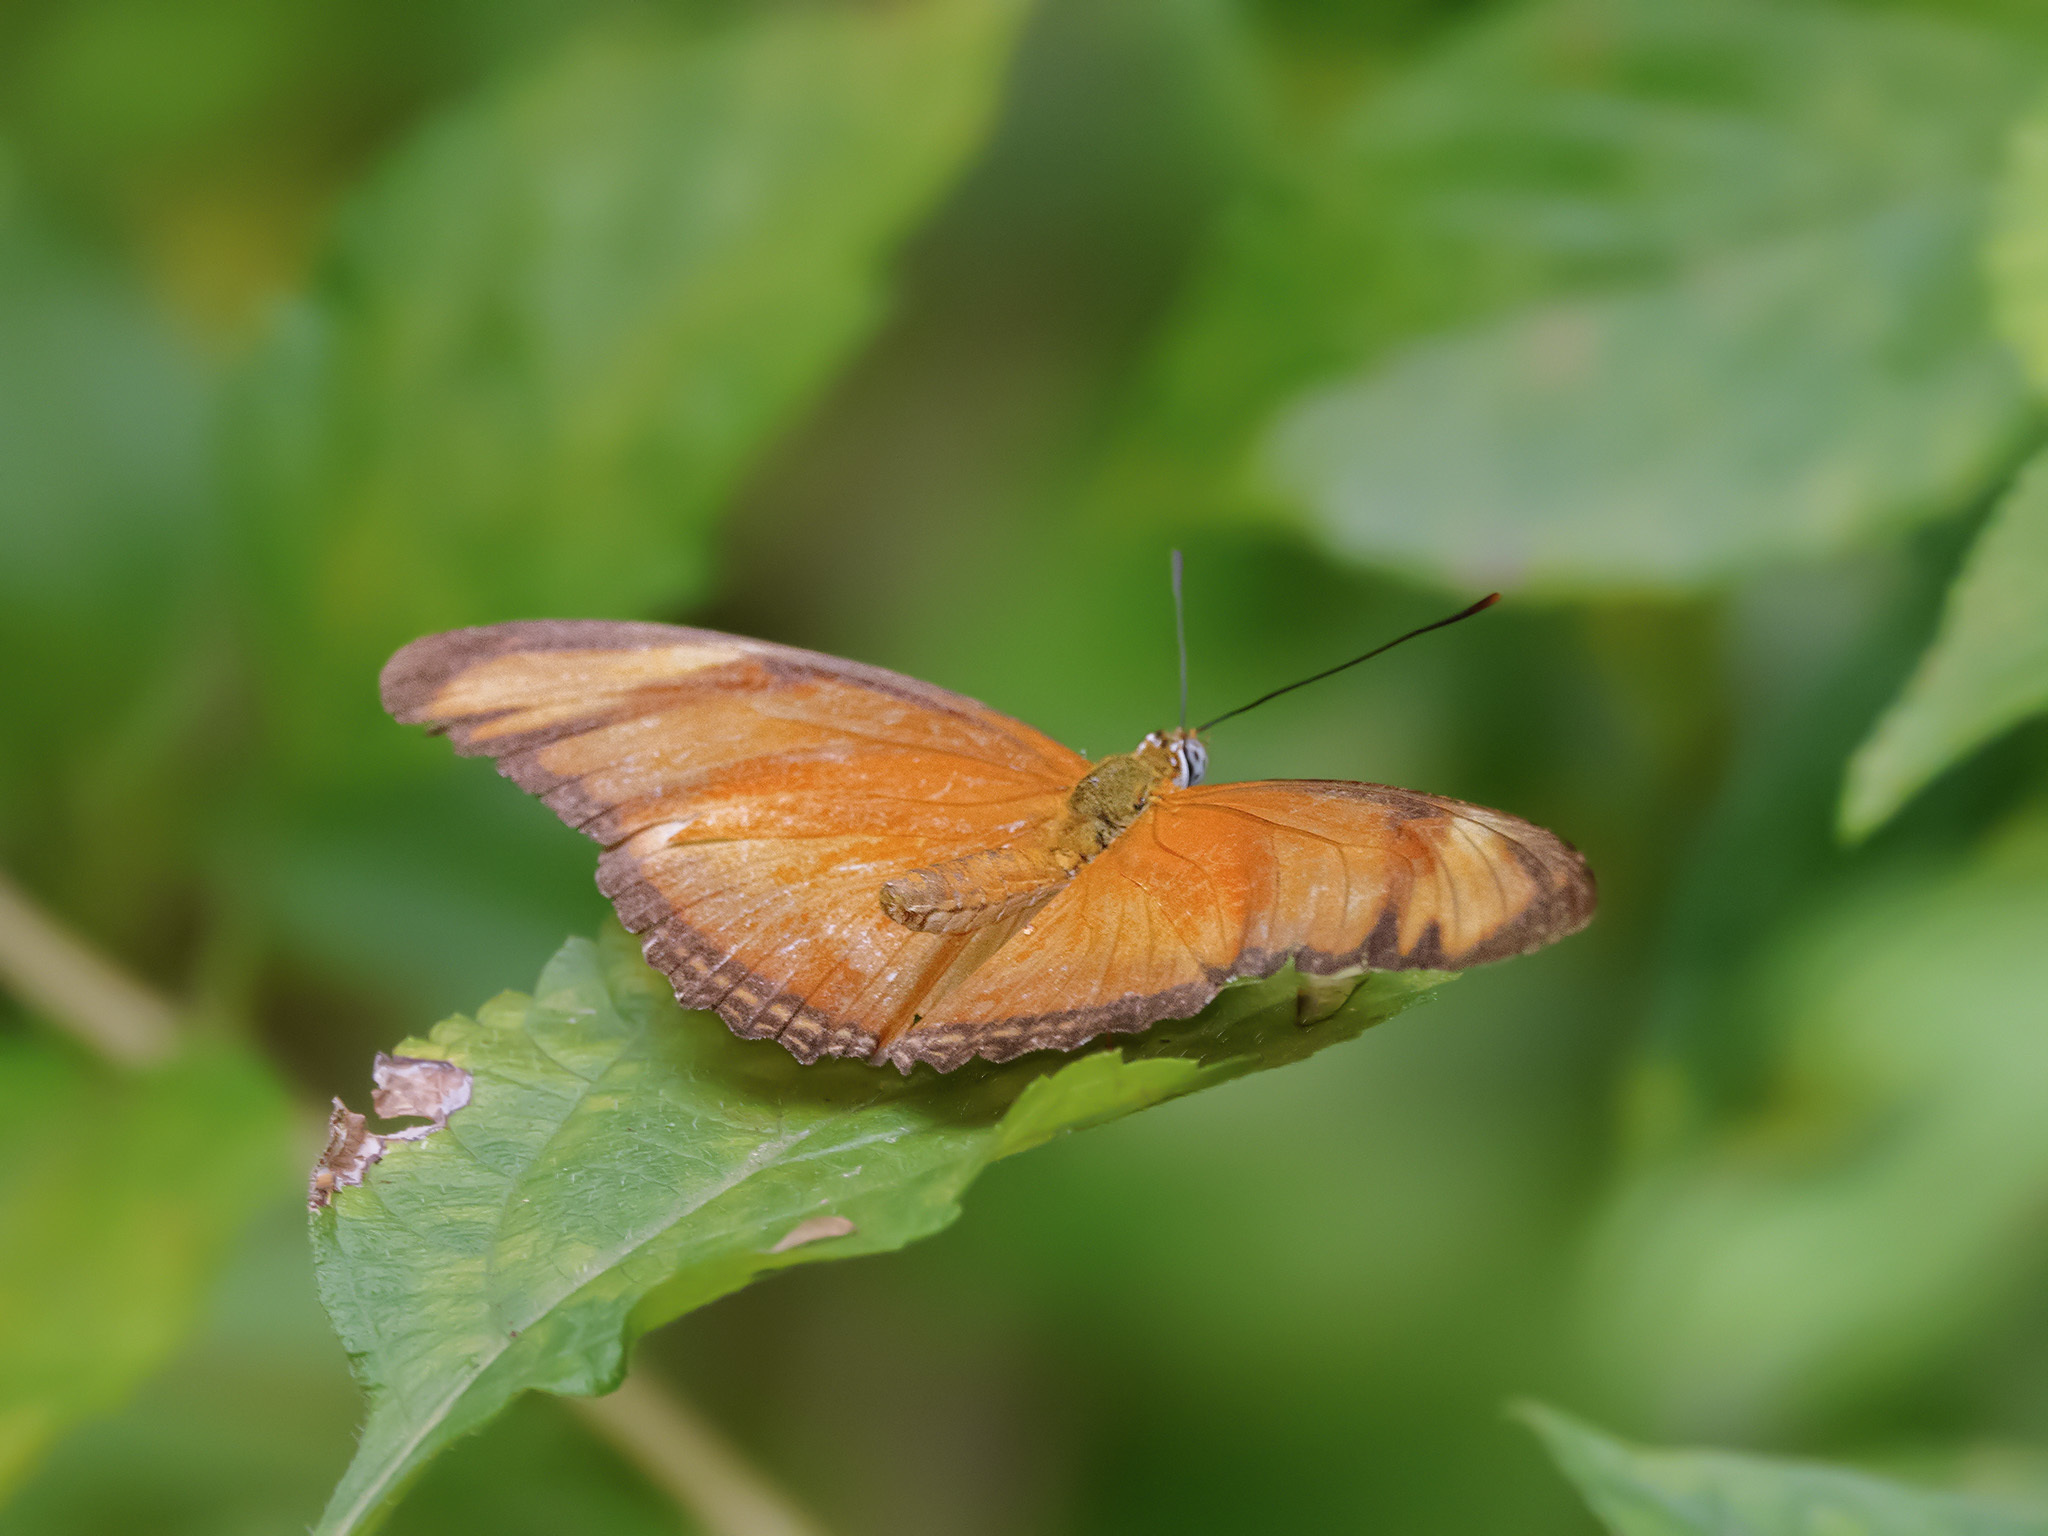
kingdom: Animalia
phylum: Arthropoda
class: Insecta
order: Lepidoptera
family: Nymphalidae
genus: Dryas
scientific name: Dryas iulia
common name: Flambeau
